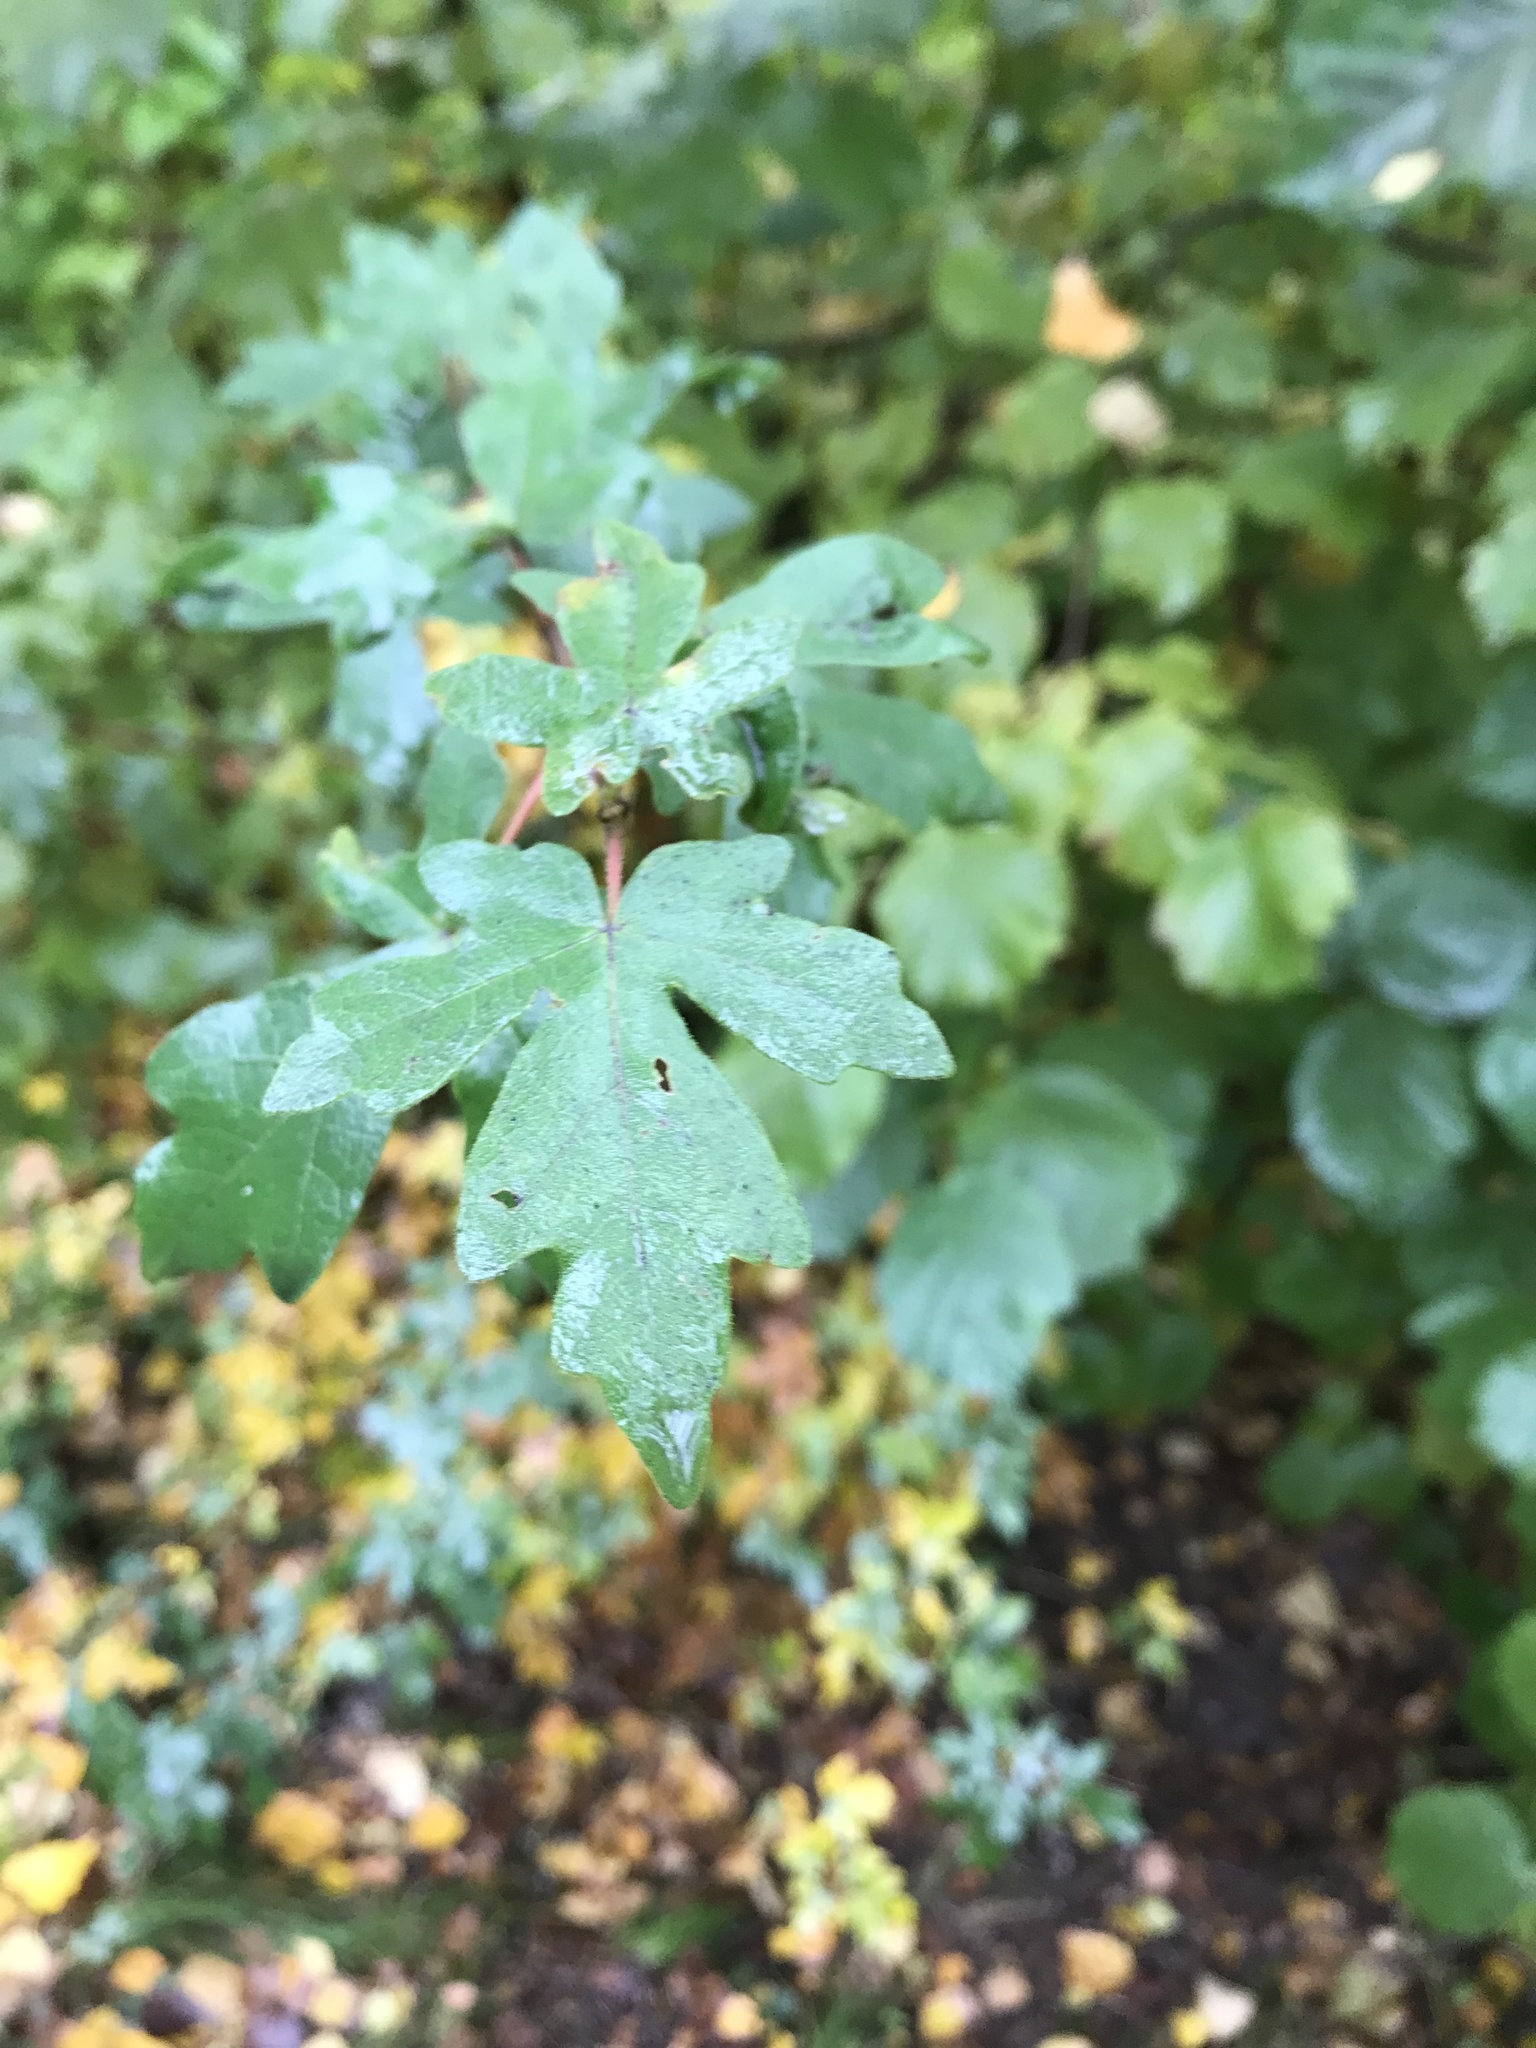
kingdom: Plantae
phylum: Tracheophyta
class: Magnoliopsida
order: Sapindales
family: Sapindaceae
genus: Acer
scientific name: Acer campestre
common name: Field maple
